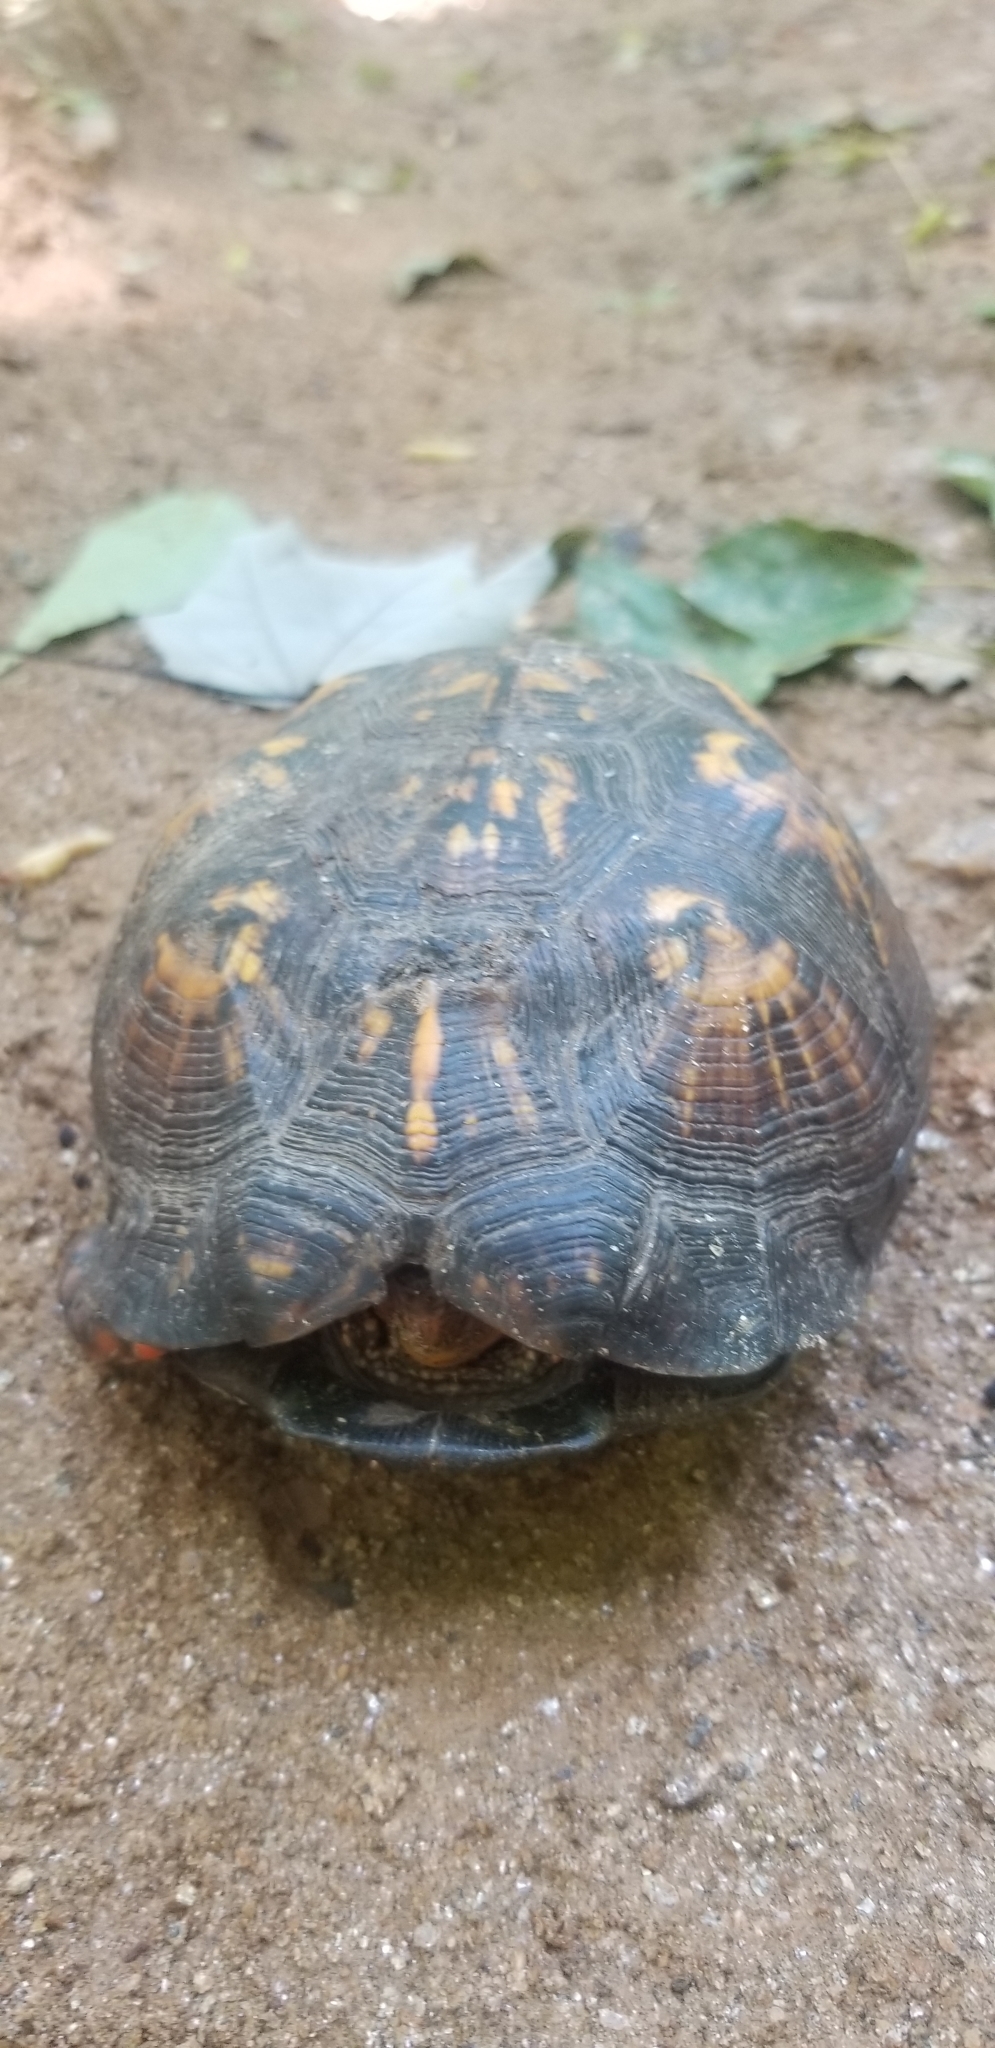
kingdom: Animalia
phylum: Chordata
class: Testudines
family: Emydidae
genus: Terrapene
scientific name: Terrapene carolina
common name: Common box turtle
